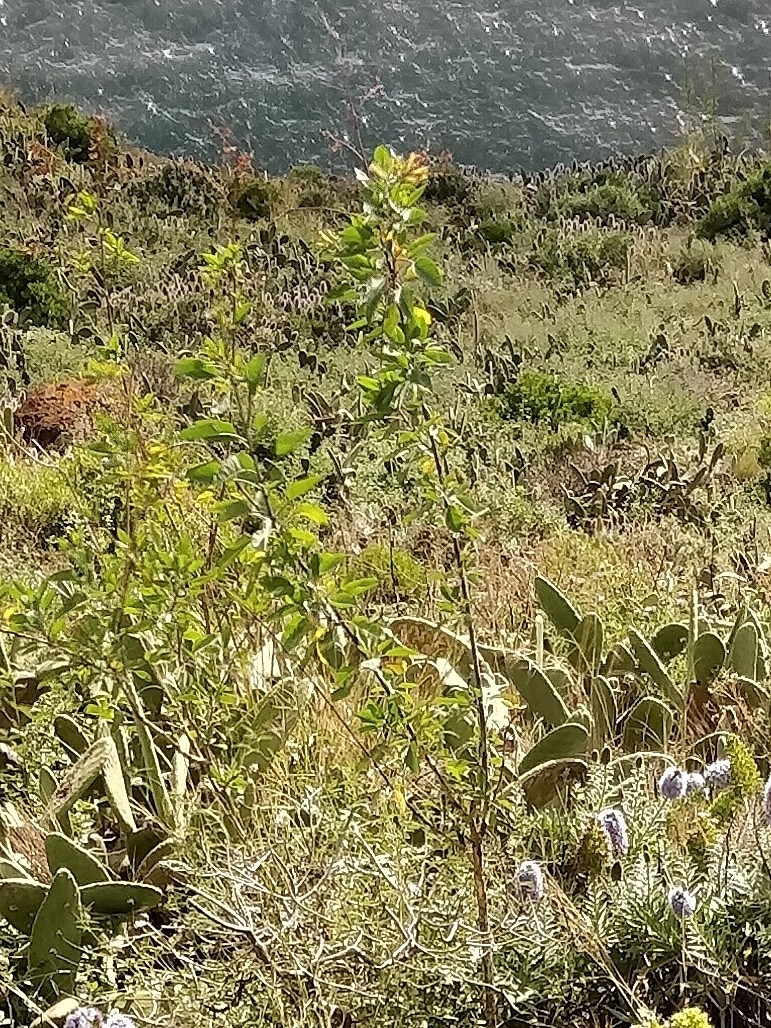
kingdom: Plantae
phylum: Tracheophyta
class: Magnoliopsida
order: Solanales
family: Solanaceae
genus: Nicotiana
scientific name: Nicotiana glauca
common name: Tree tobacco
